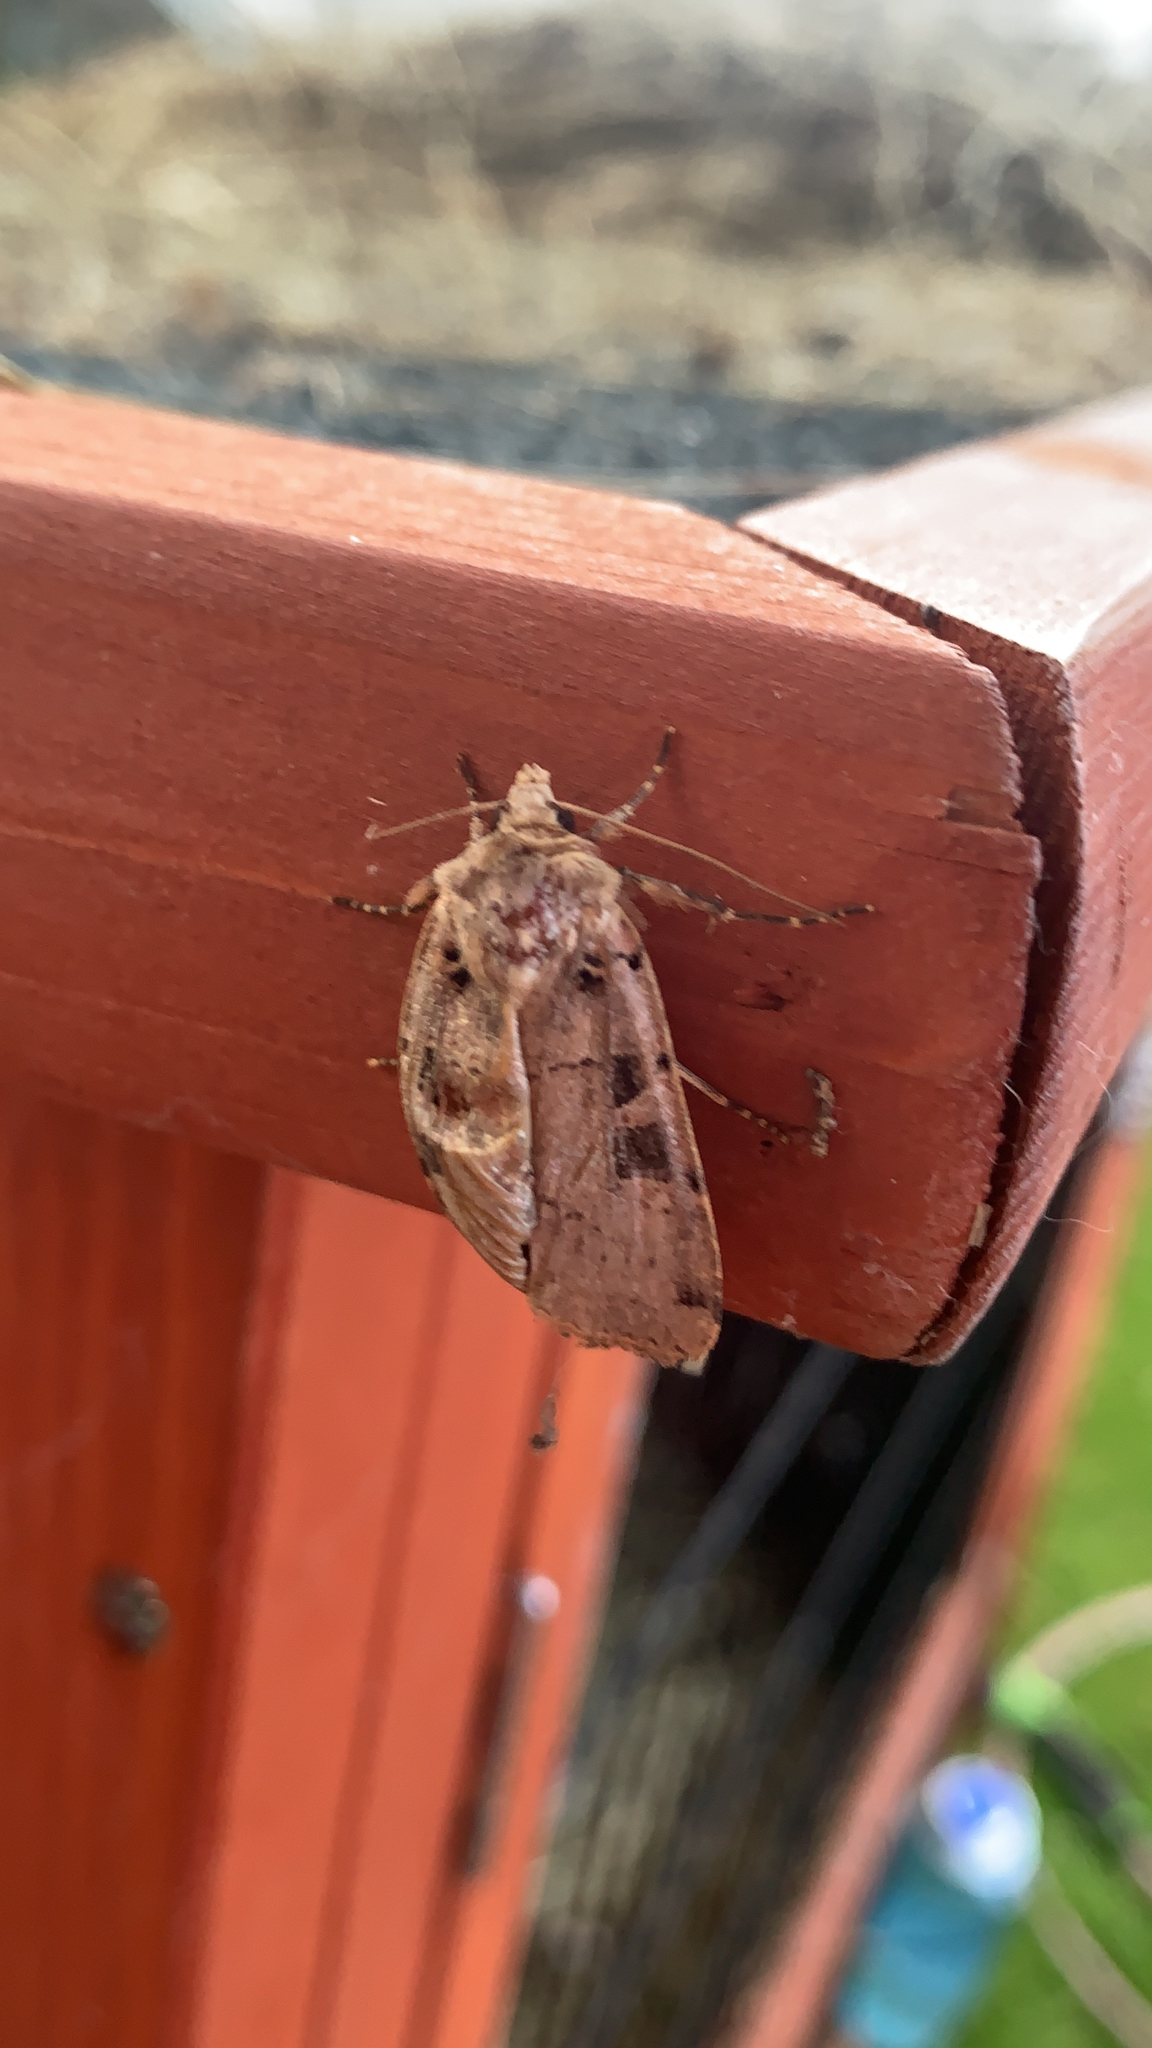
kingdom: Animalia
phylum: Arthropoda
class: Insecta
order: Lepidoptera
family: Noctuidae
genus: Xestia
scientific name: Xestia triangulum
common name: Double square-spot
